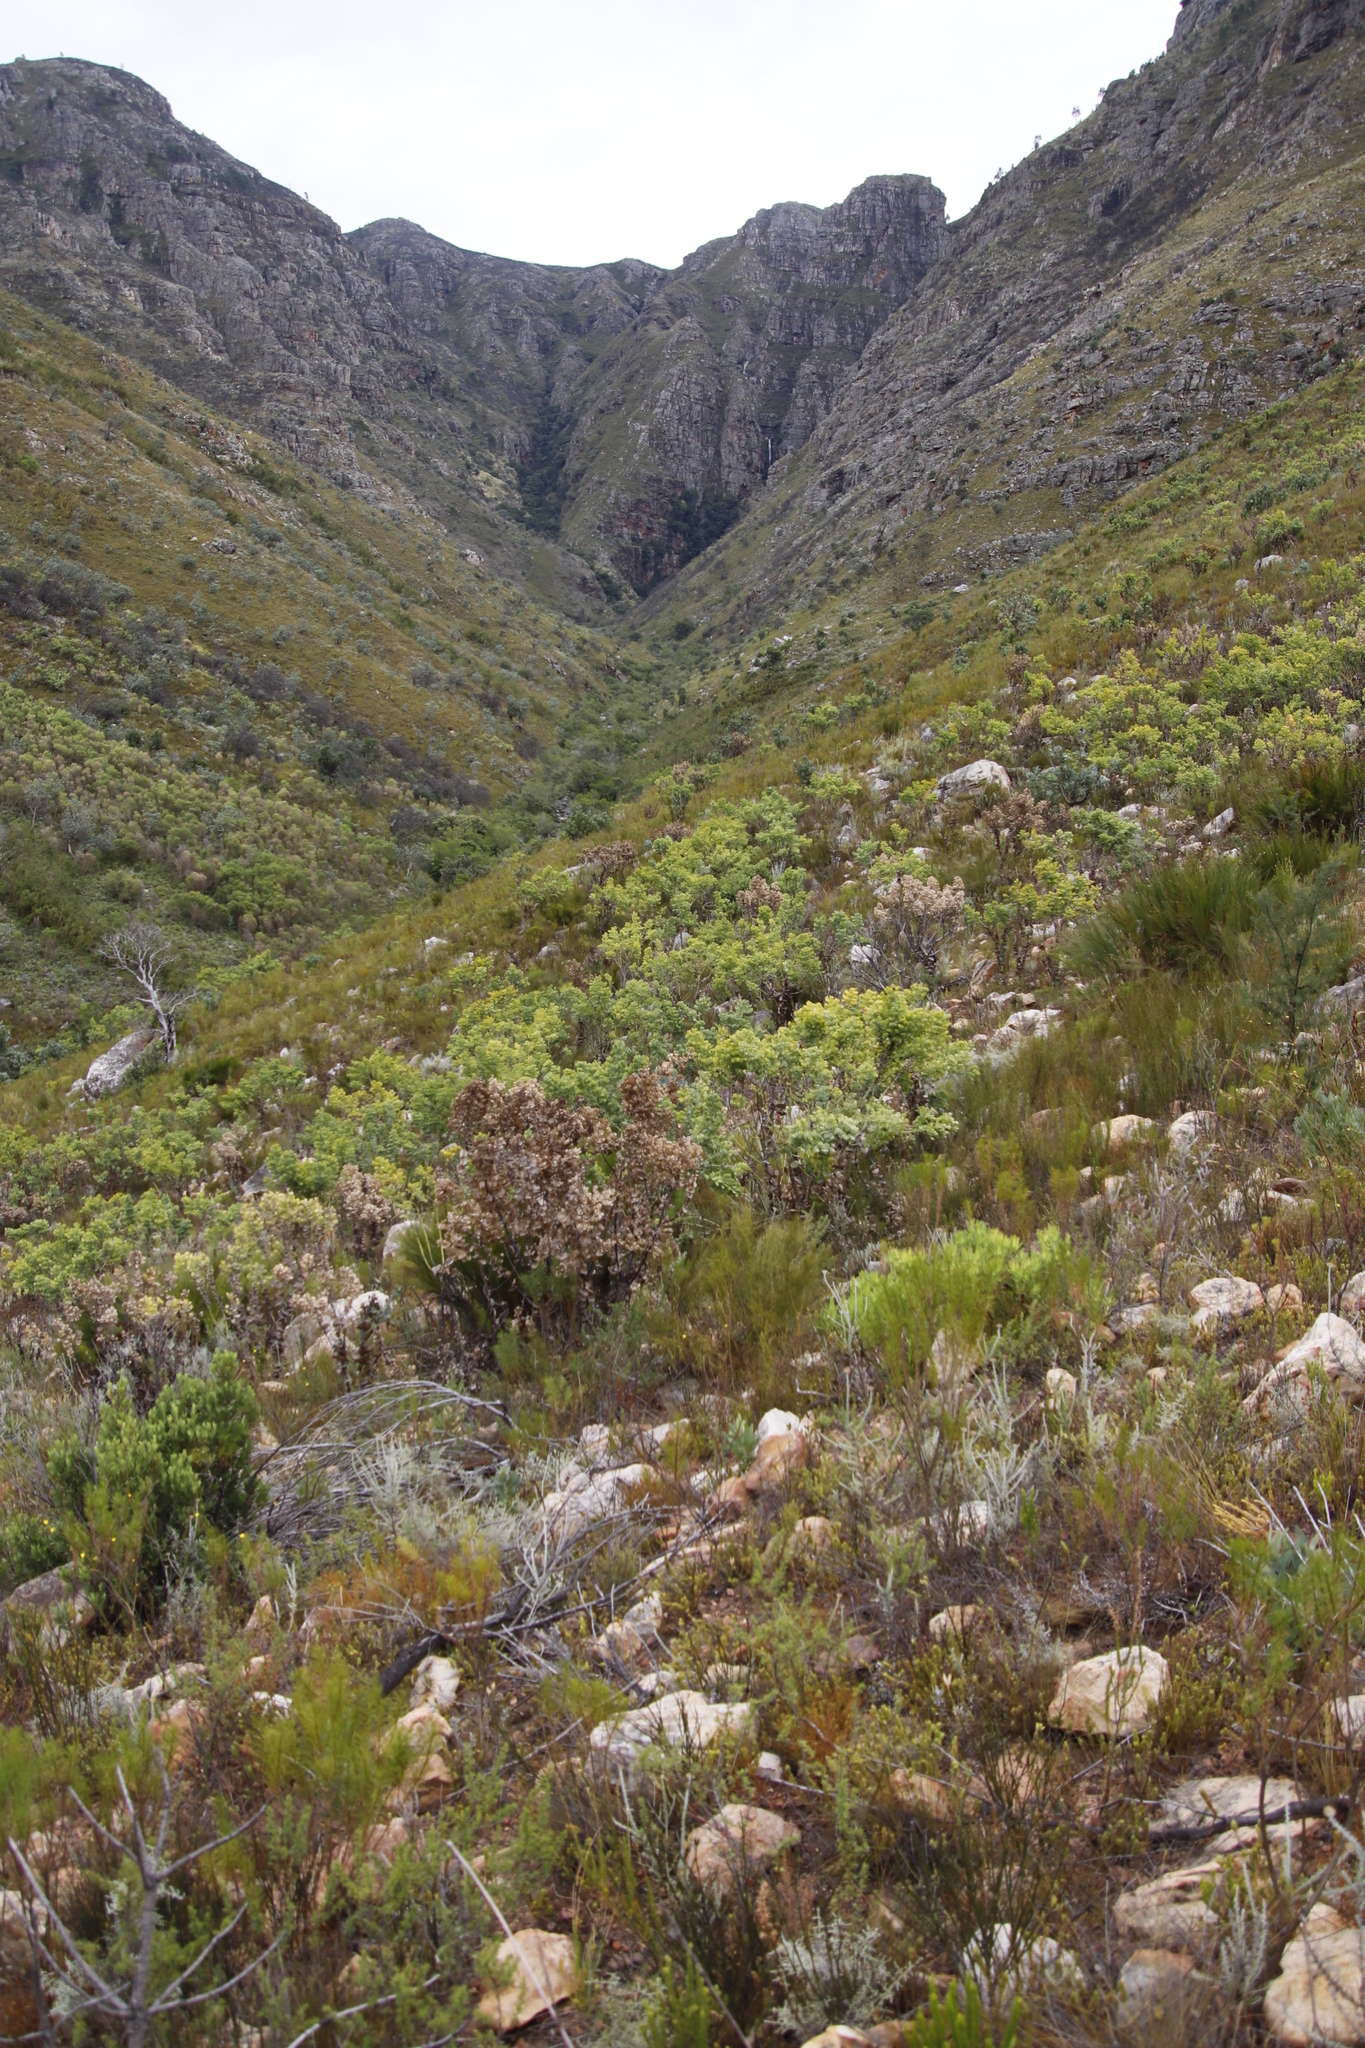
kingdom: Plantae
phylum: Tracheophyta
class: Magnoliopsida
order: Fabales
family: Fabaceae
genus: Rafnia
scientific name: Rafnia amplexicaulis
